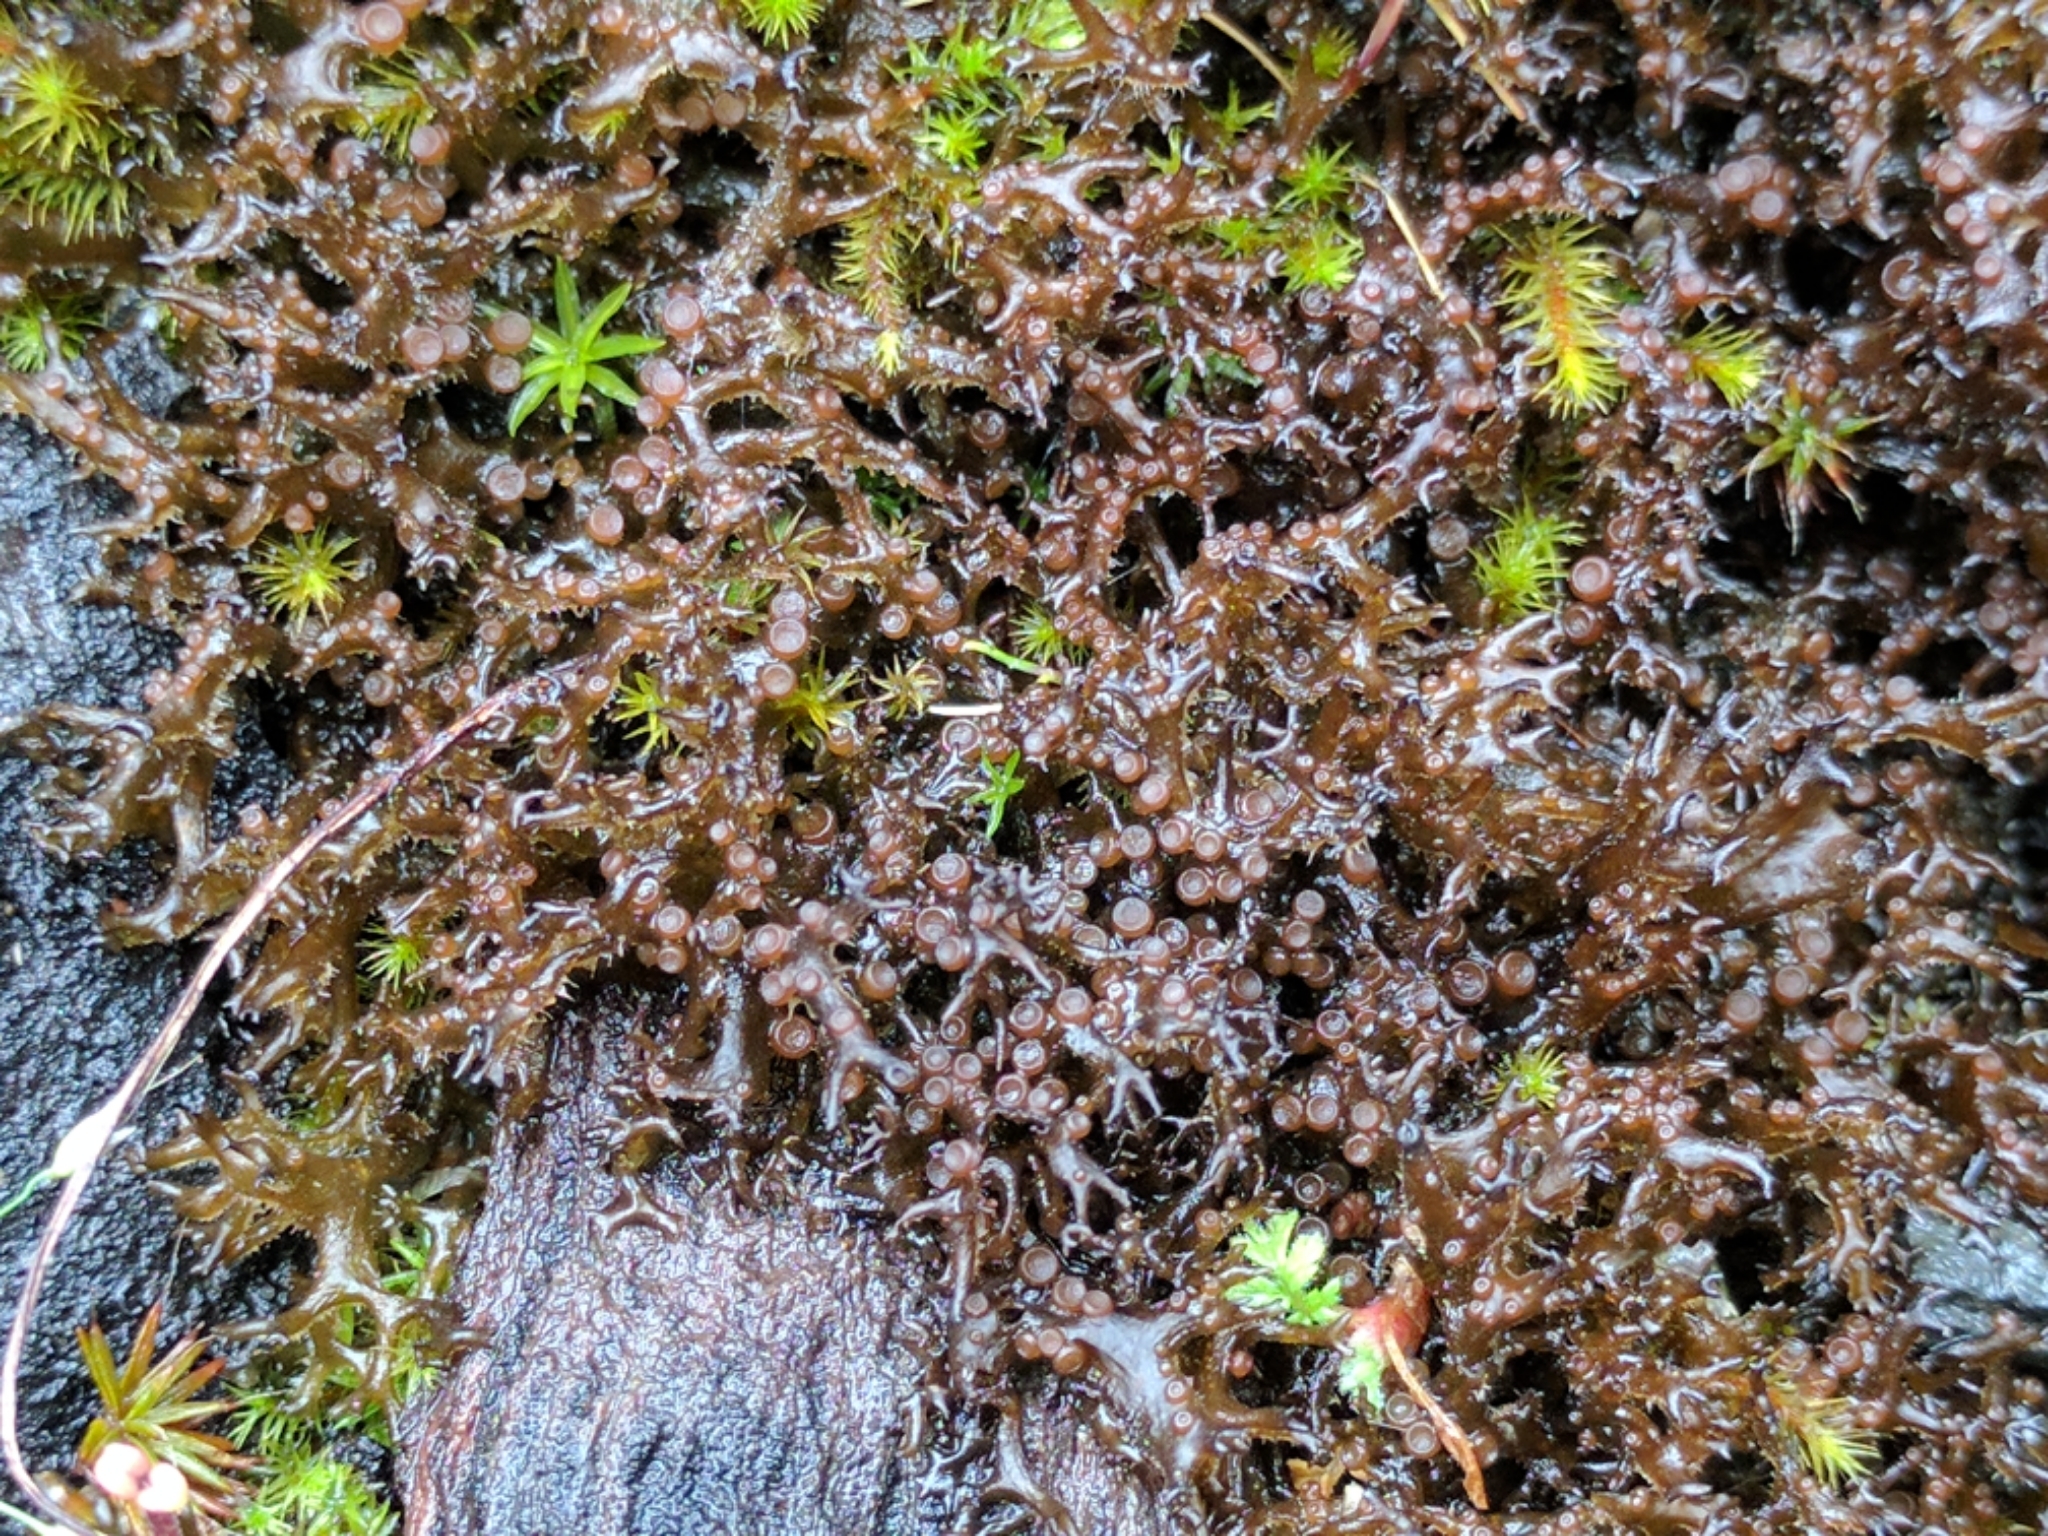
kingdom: Fungi
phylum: Ascomycota
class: Lecanoromycetes
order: Peltigerales
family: Collemataceae
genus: Scytinium
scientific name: Scytinium palmatum
